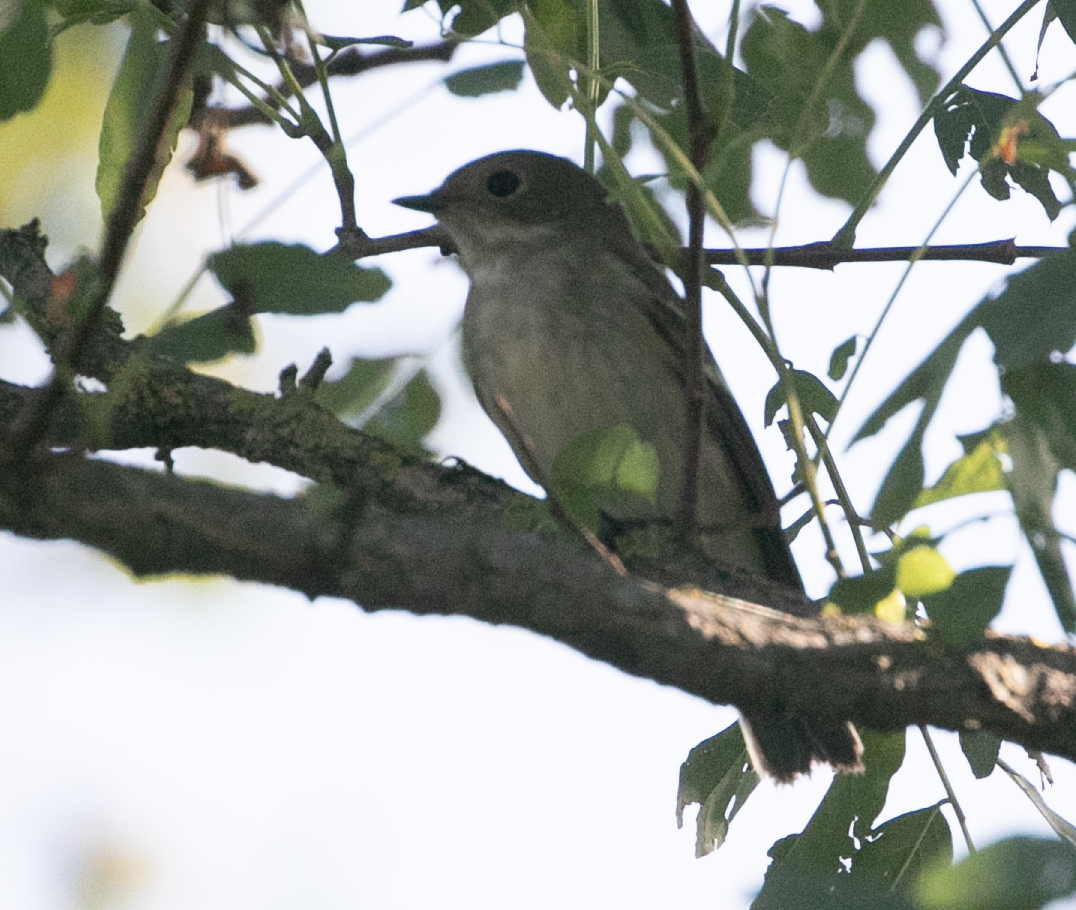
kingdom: Animalia
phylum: Chordata
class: Aves
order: Passeriformes
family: Muscicapidae
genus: Ficedula
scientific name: Ficedula hypoleuca
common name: European pied flycatcher
